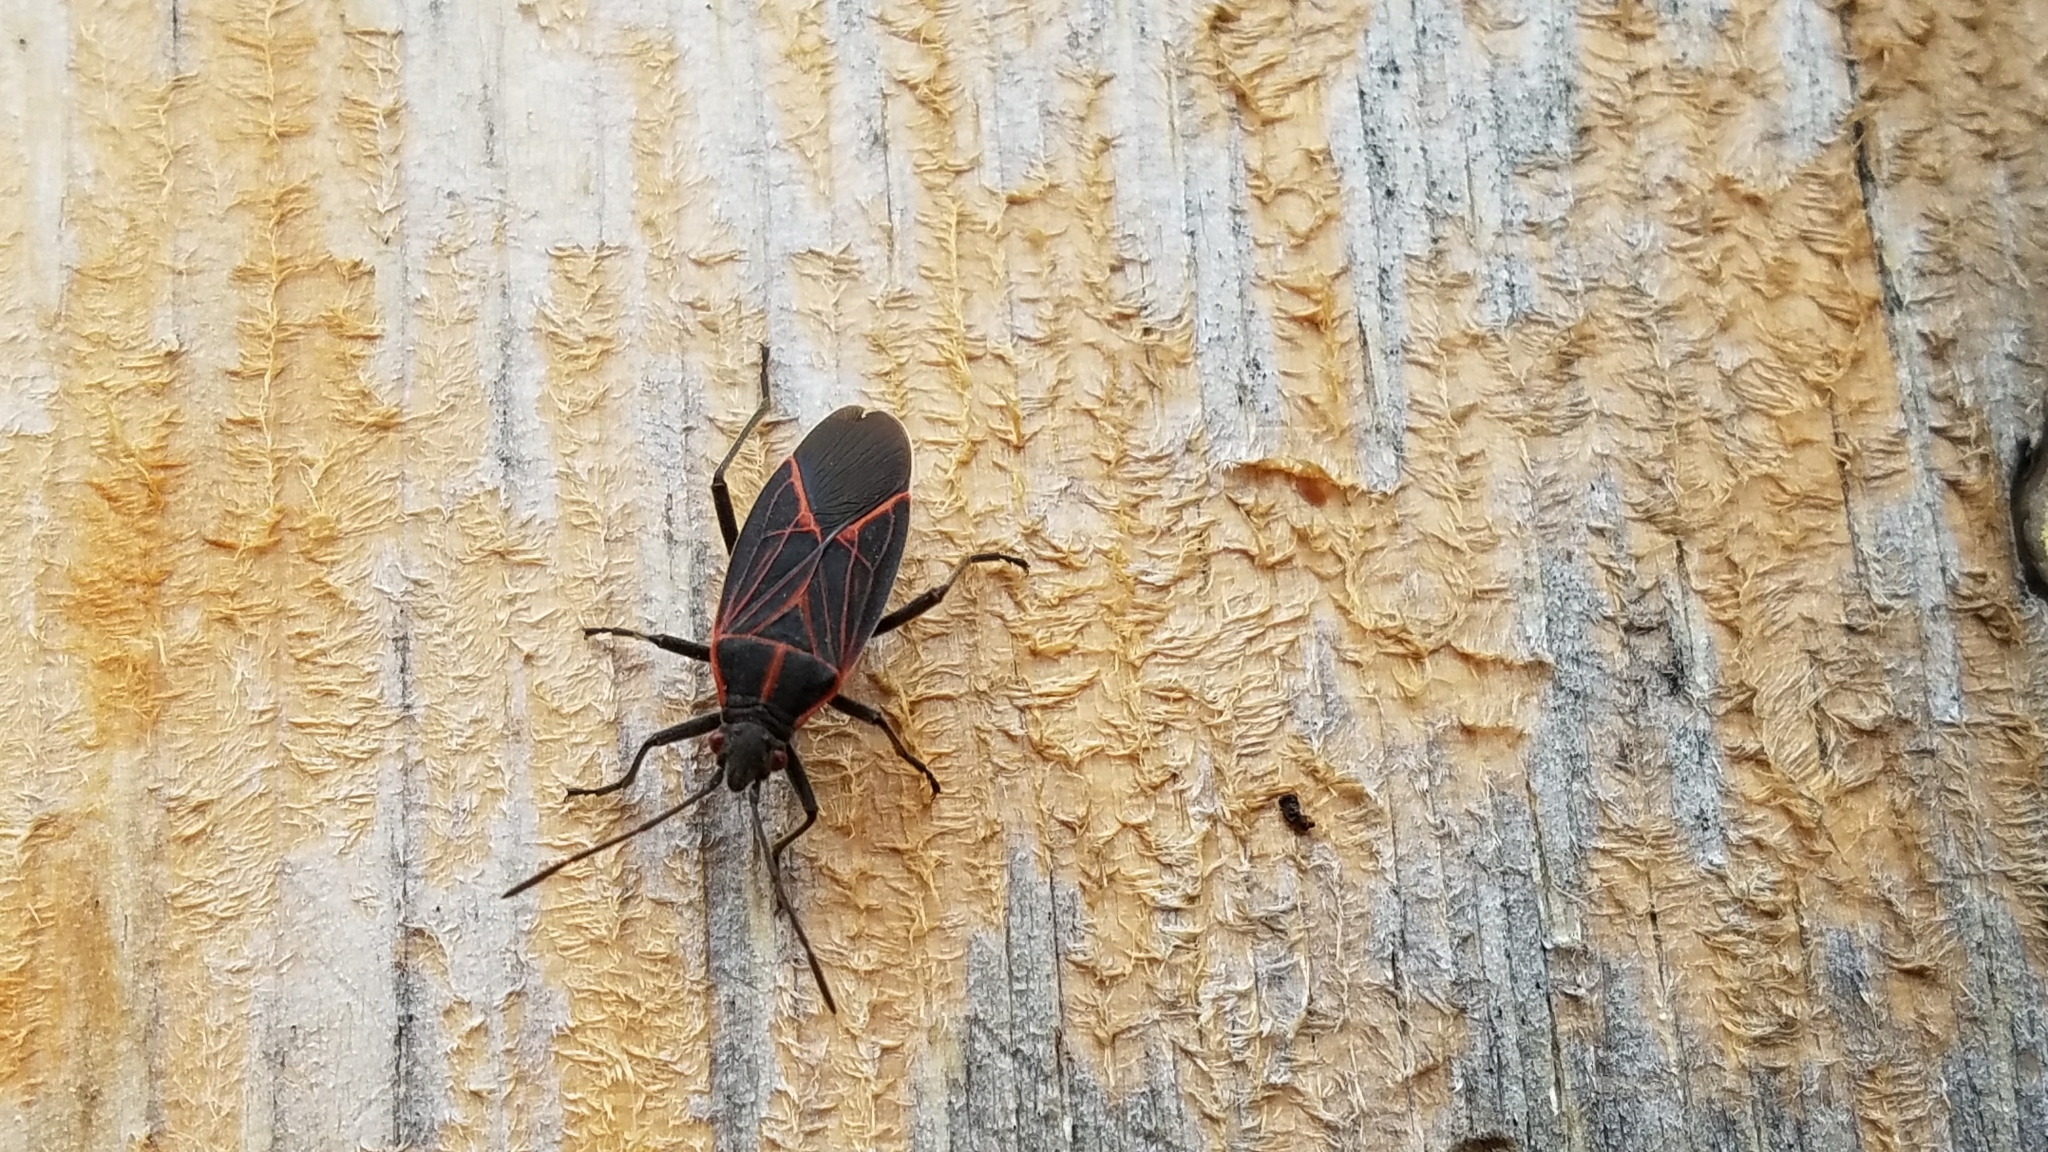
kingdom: Animalia
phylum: Arthropoda
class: Insecta
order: Hemiptera
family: Rhopalidae
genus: Boisea
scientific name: Boisea rubrolineata
